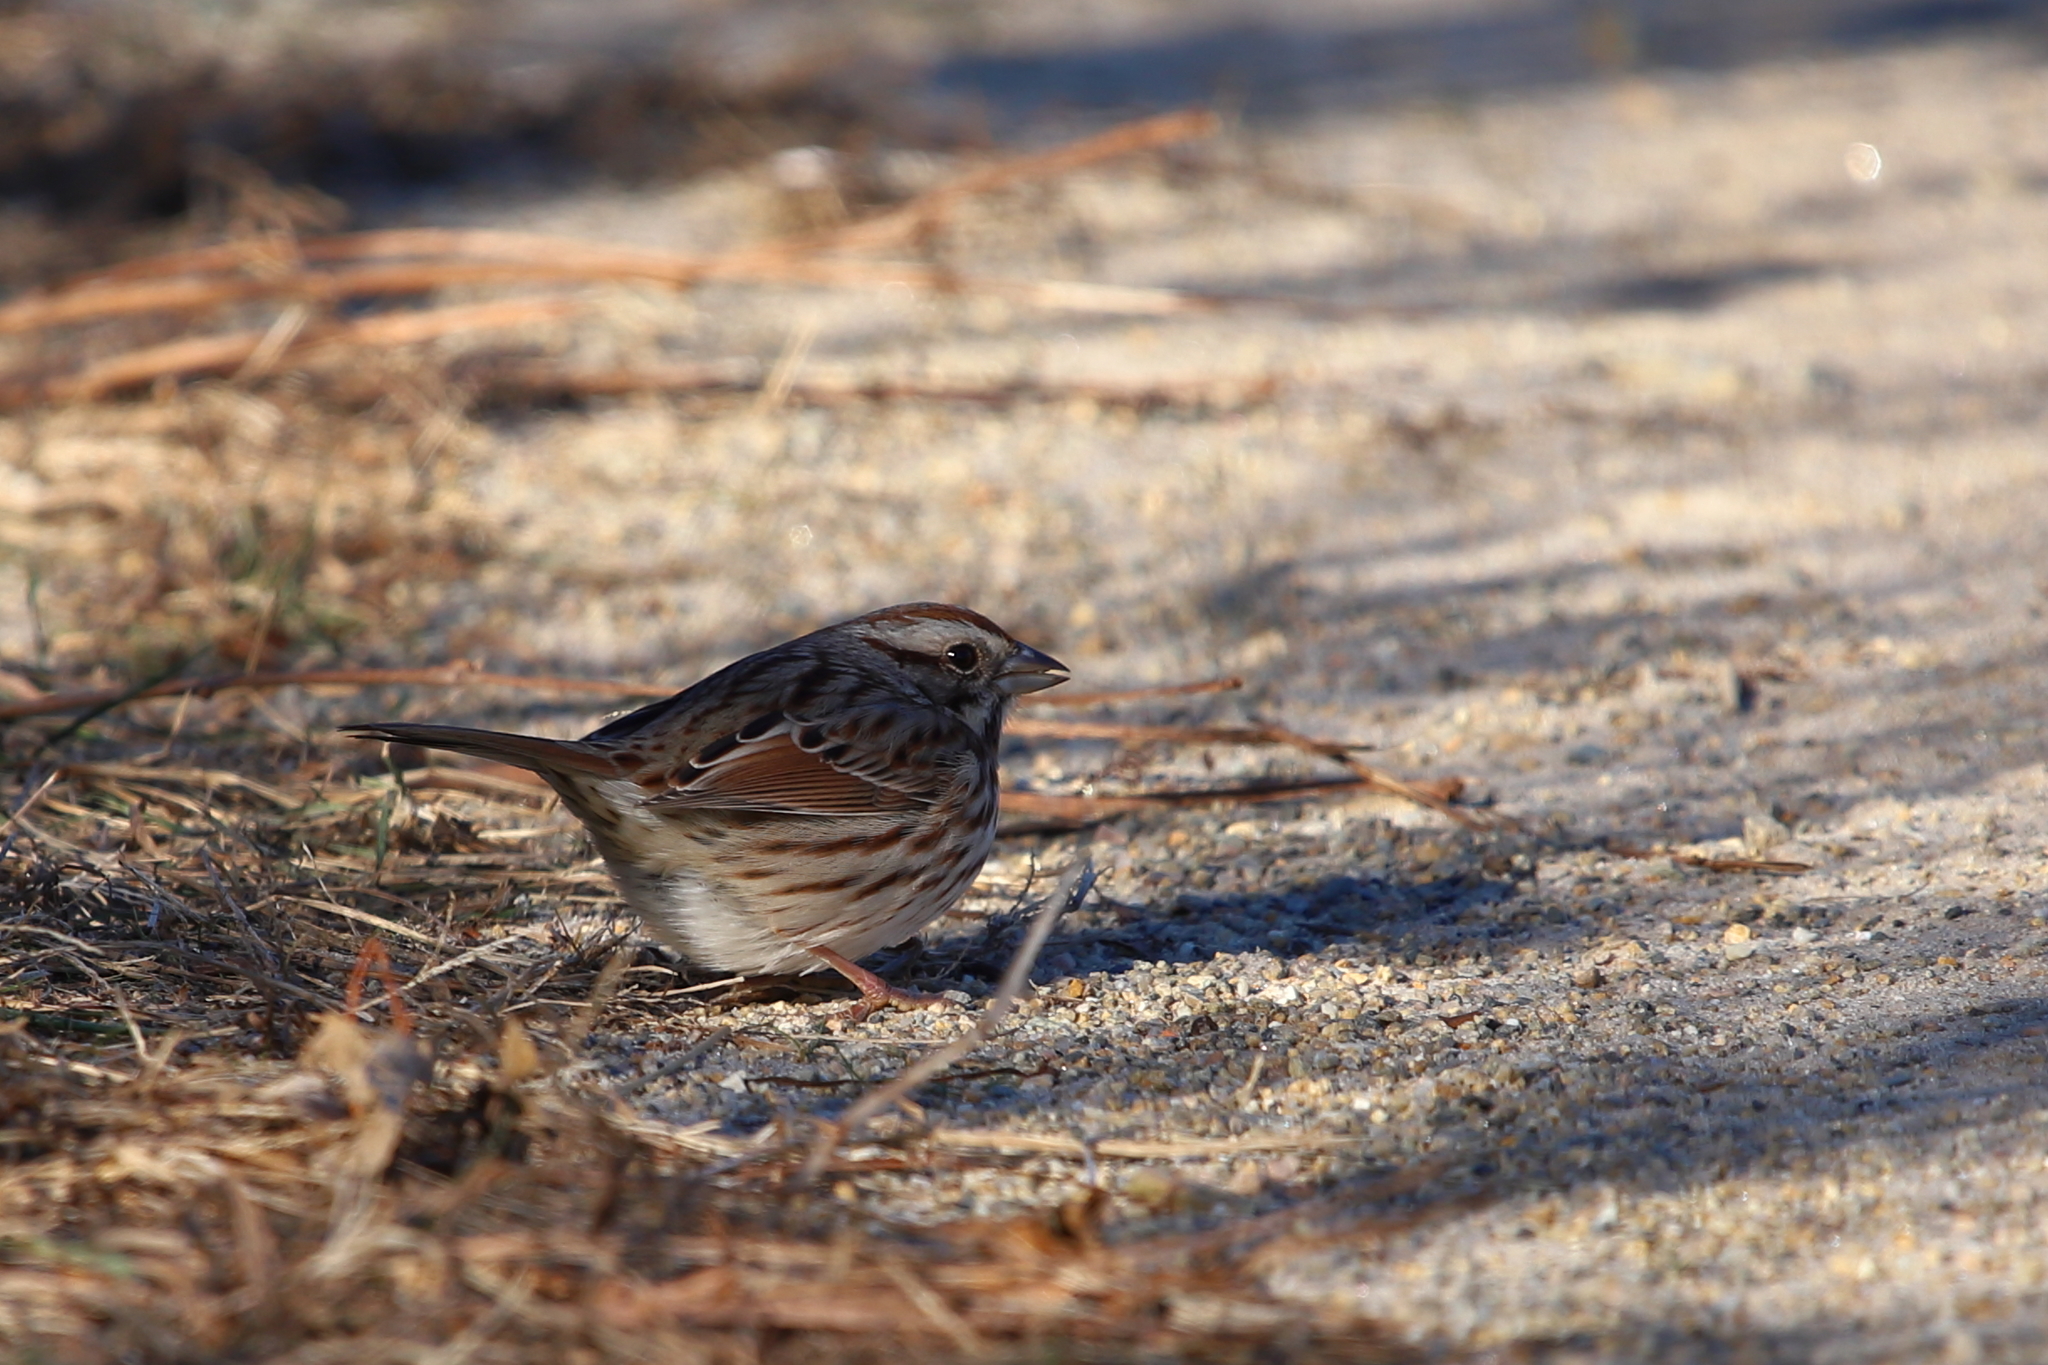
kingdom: Animalia
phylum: Chordata
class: Aves
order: Passeriformes
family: Passerellidae
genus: Melospiza
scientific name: Melospiza melodia
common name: Song sparrow
